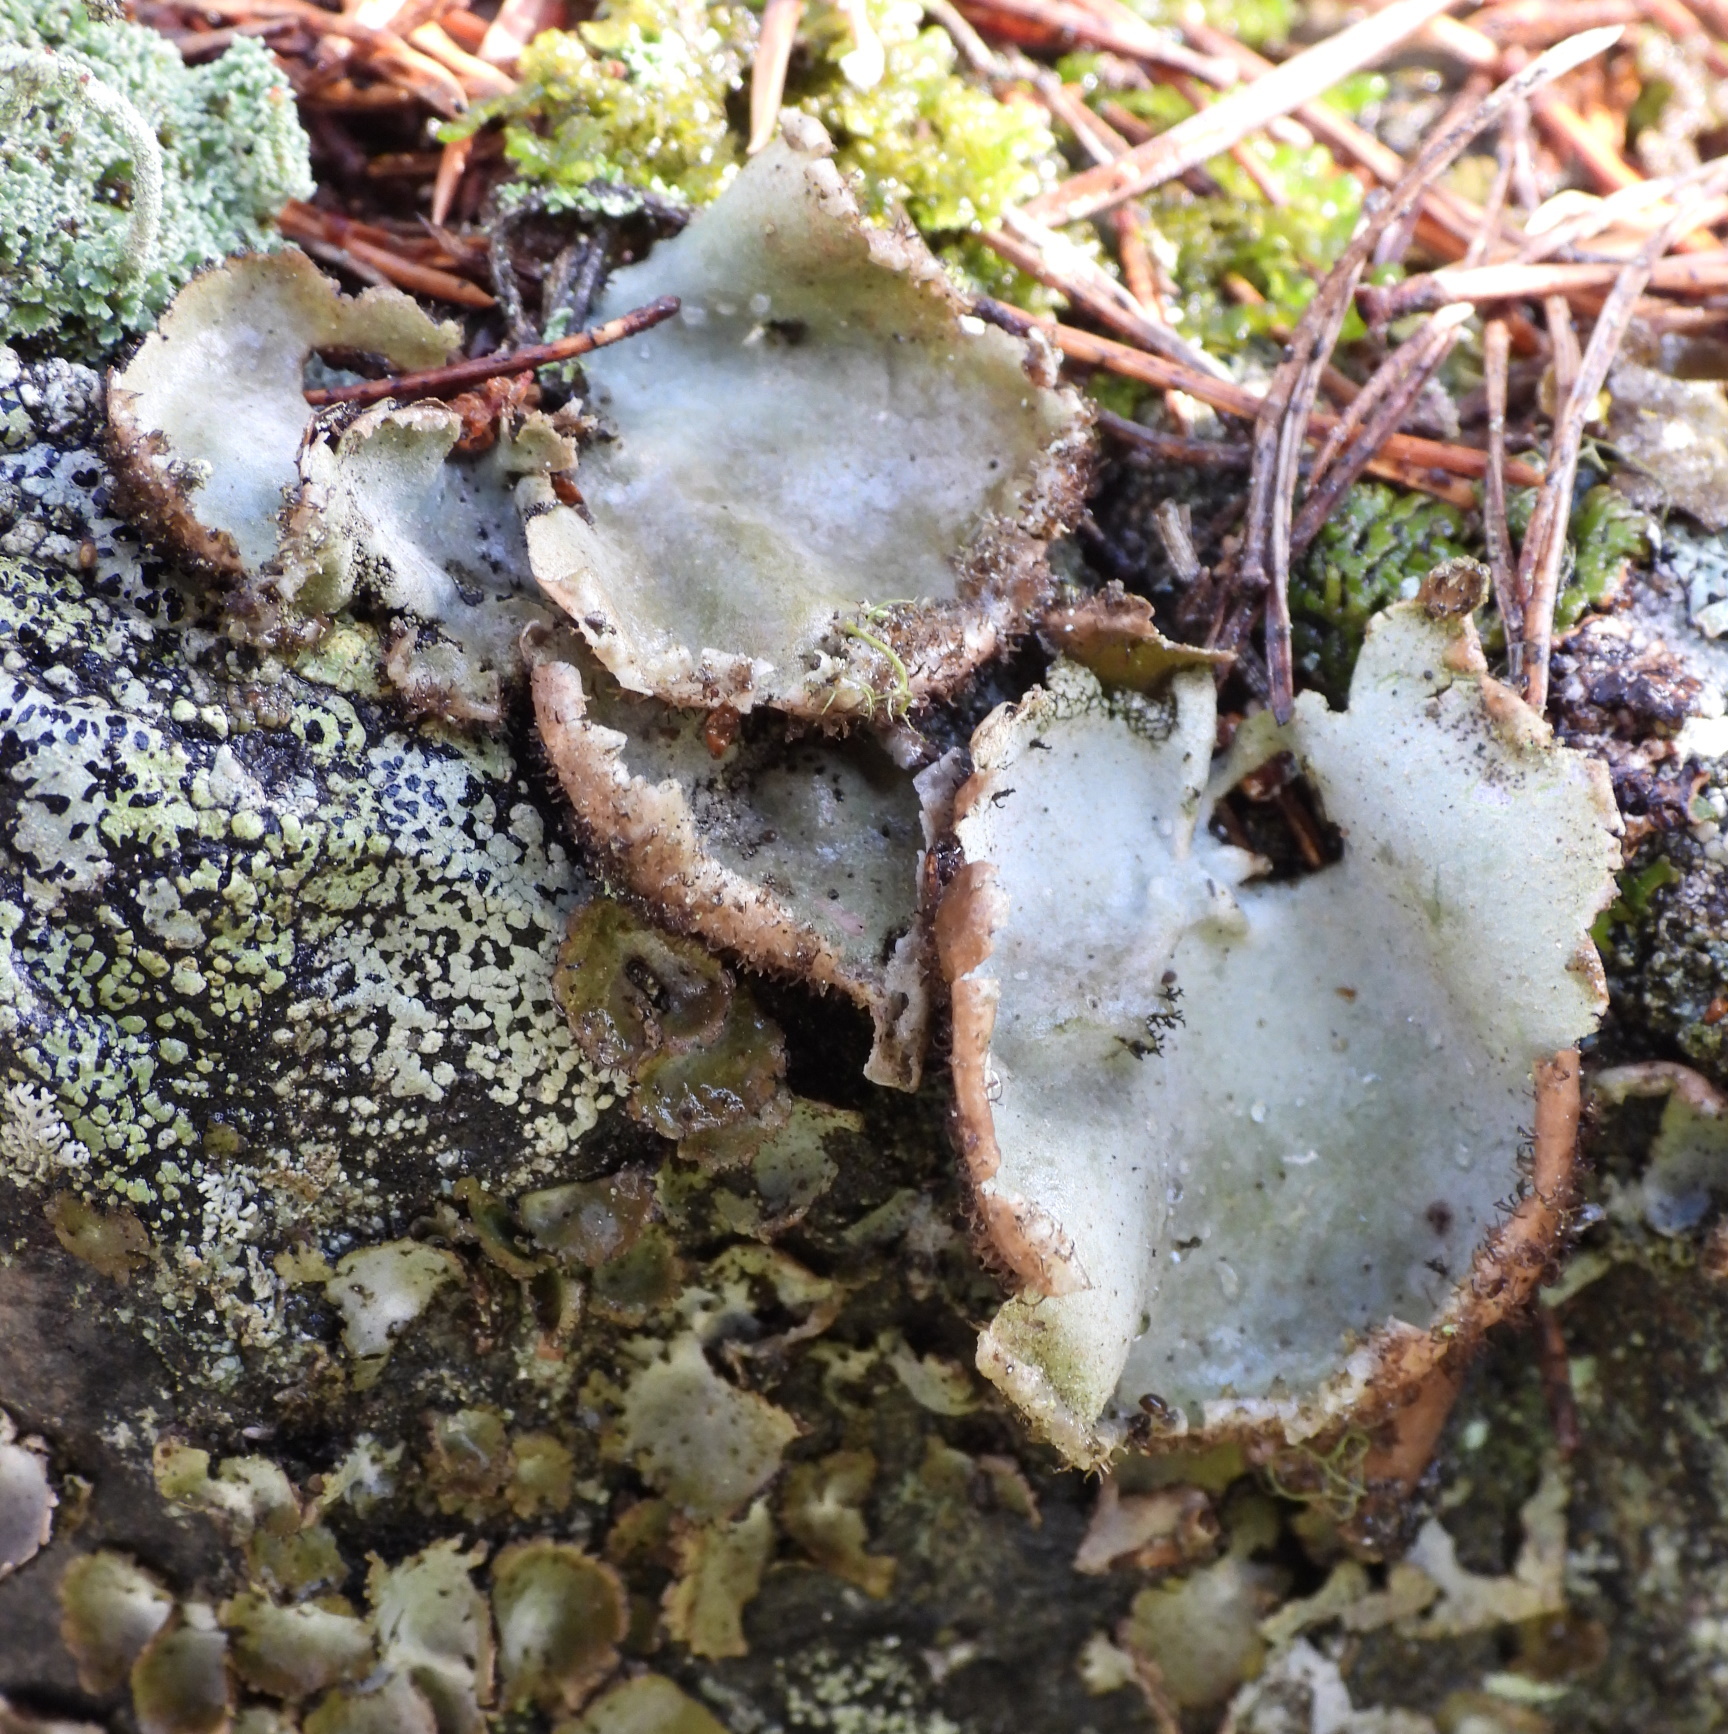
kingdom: Fungi
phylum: Ascomycota
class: Lecanoromycetes
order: Umbilicariales
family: Umbilicariaceae
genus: Umbilicaria
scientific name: Umbilicaria hirsuta
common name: Granulating rocktripe lichen
